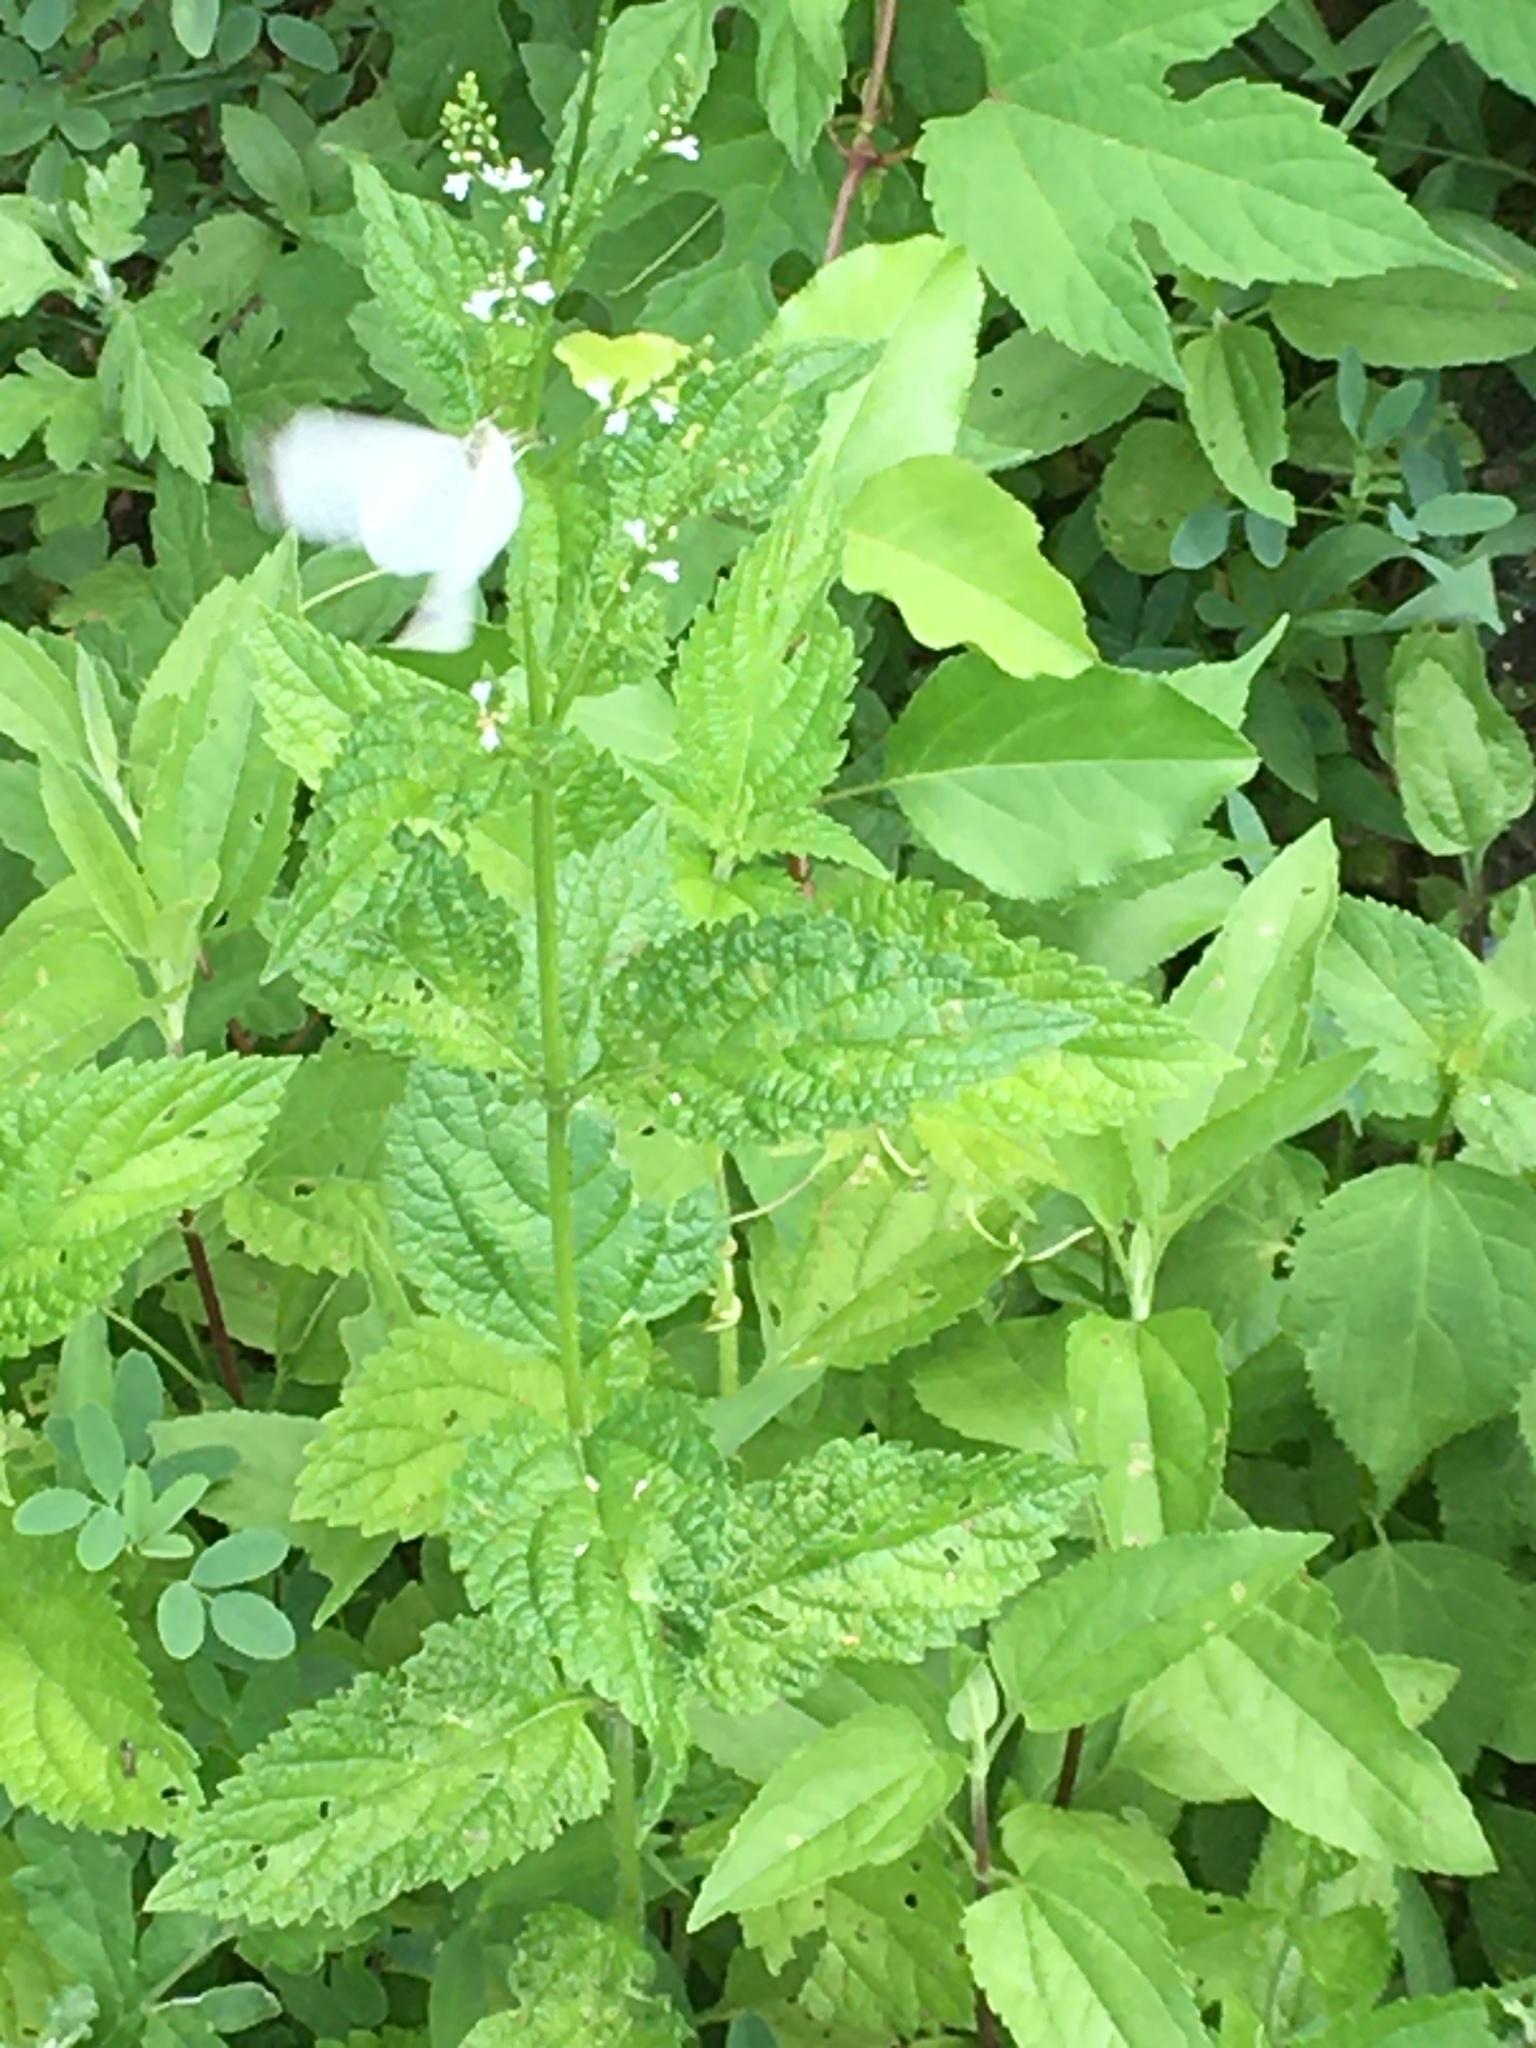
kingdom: Animalia
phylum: Arthropoda
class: Insecta
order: Lepidoptera
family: Pieridae
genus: Pieris
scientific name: Pieris rapae
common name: Small white
